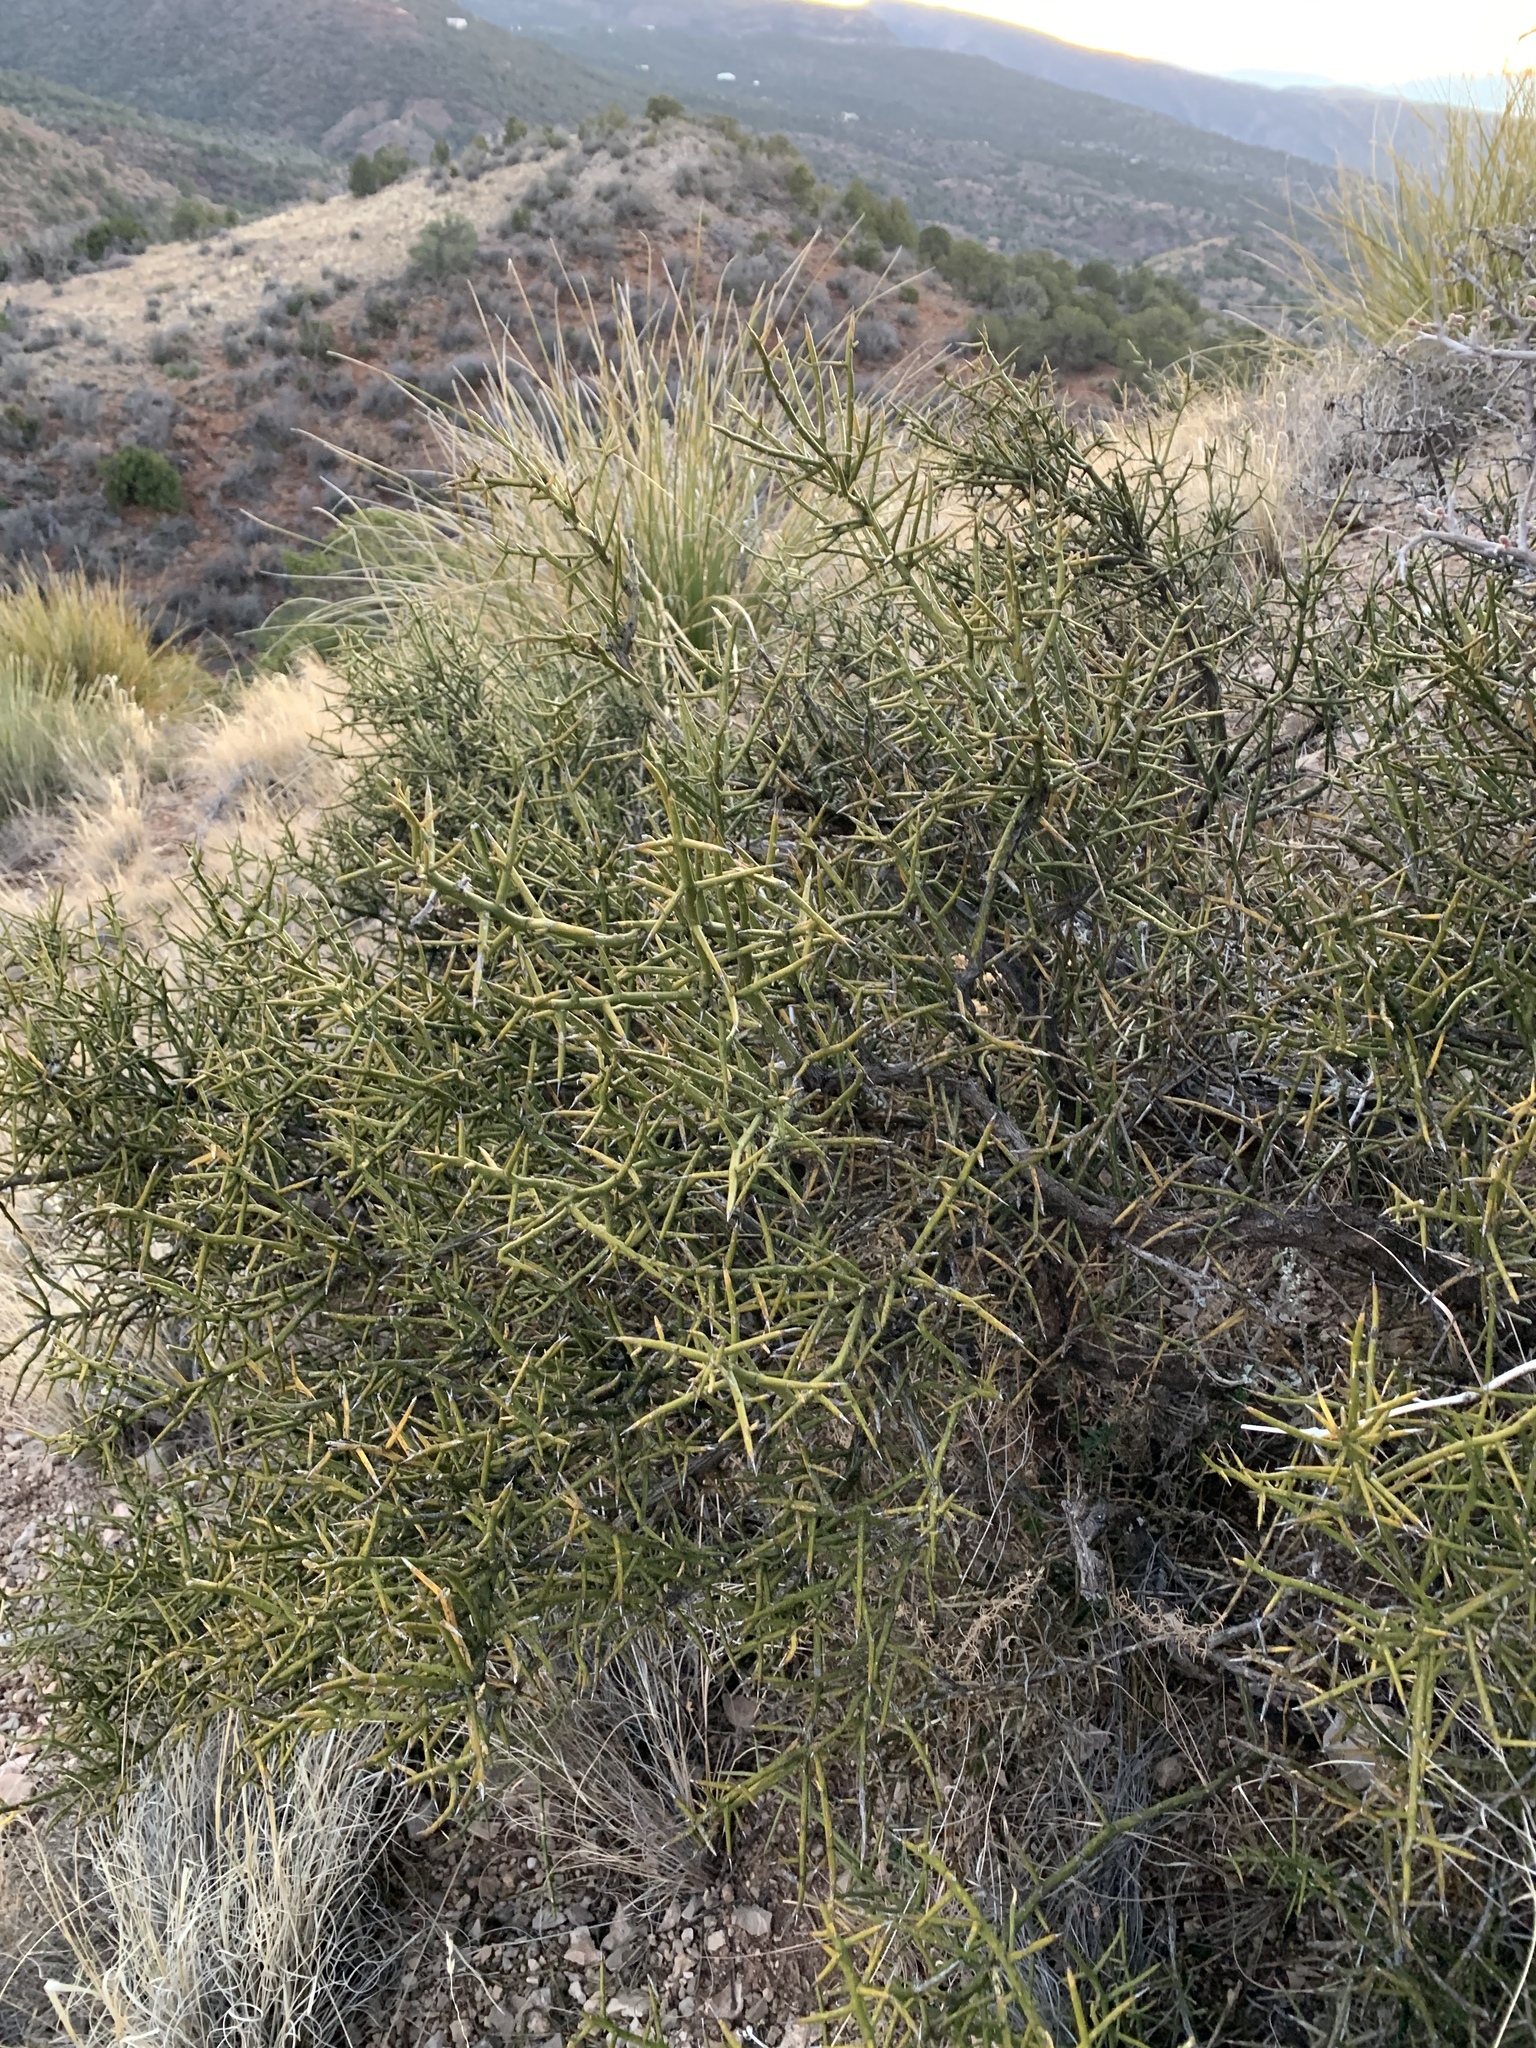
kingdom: Plantae
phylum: Tracheophyta
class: Magnoliopsida
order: Brassicales
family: Koeberliniaceae
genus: Koeberlinia
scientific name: Koeberlinia spinosa
